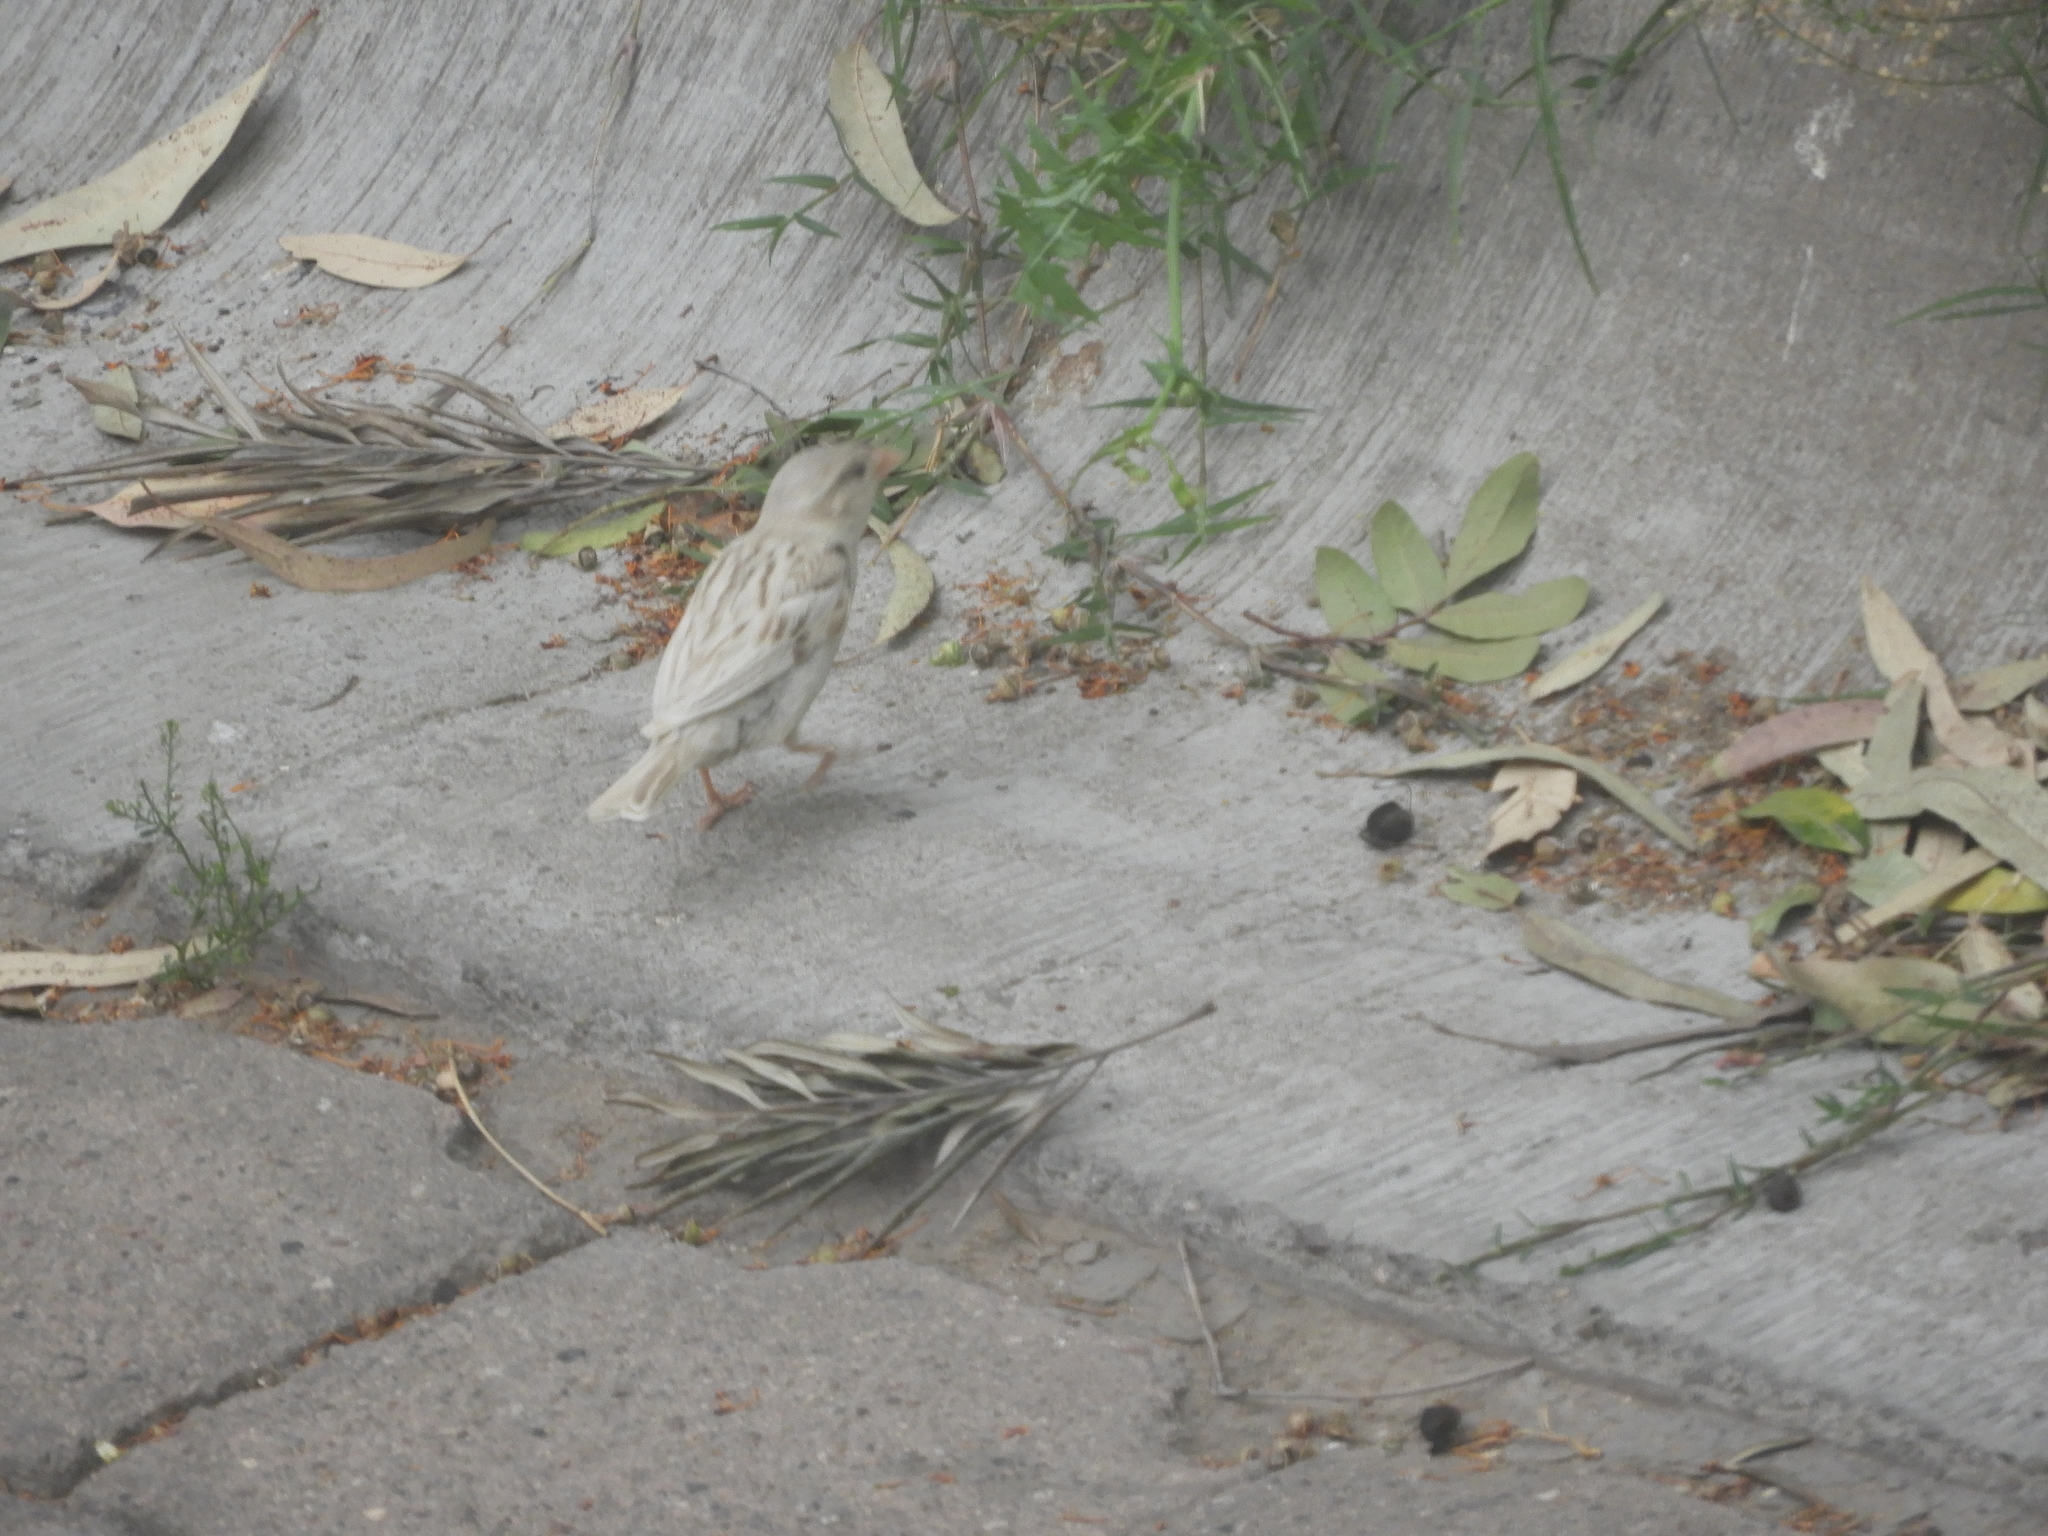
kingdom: Animalia
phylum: Chordata
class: Aves
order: Passeriformes
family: Passeridae
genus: Passer
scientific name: Passer domesticus
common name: House sparrow
